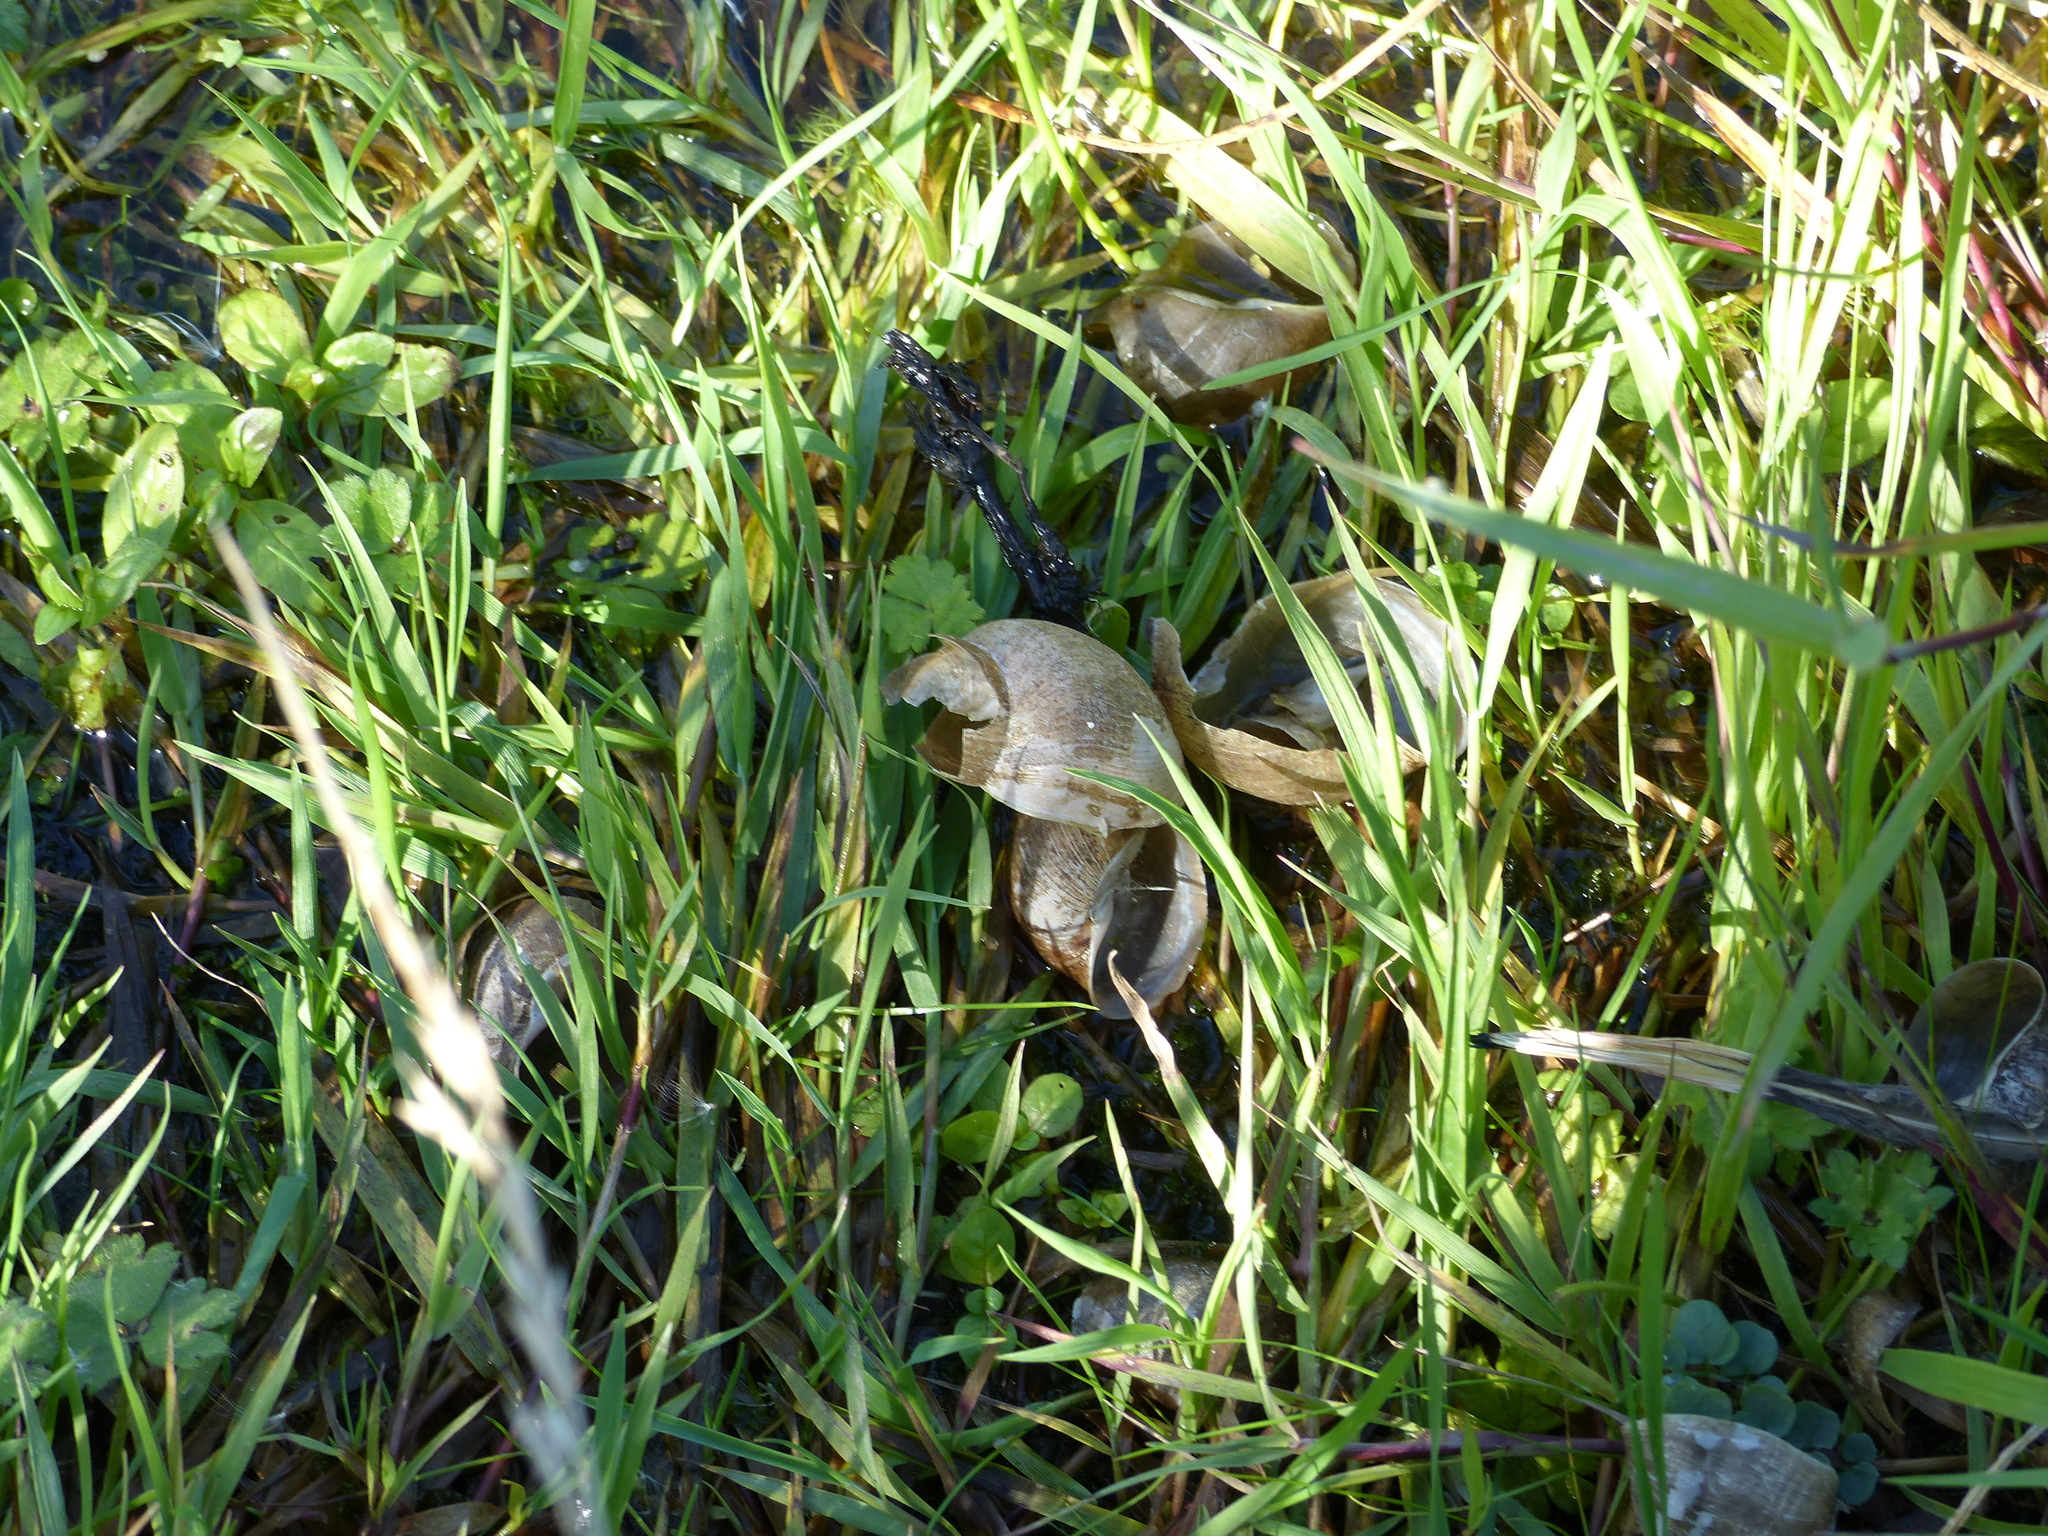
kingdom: Animalia
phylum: Arthropoda
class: Insecta
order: Coleoptera
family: Chrysomelidae
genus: Donacia
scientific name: Donacia versicolorea
